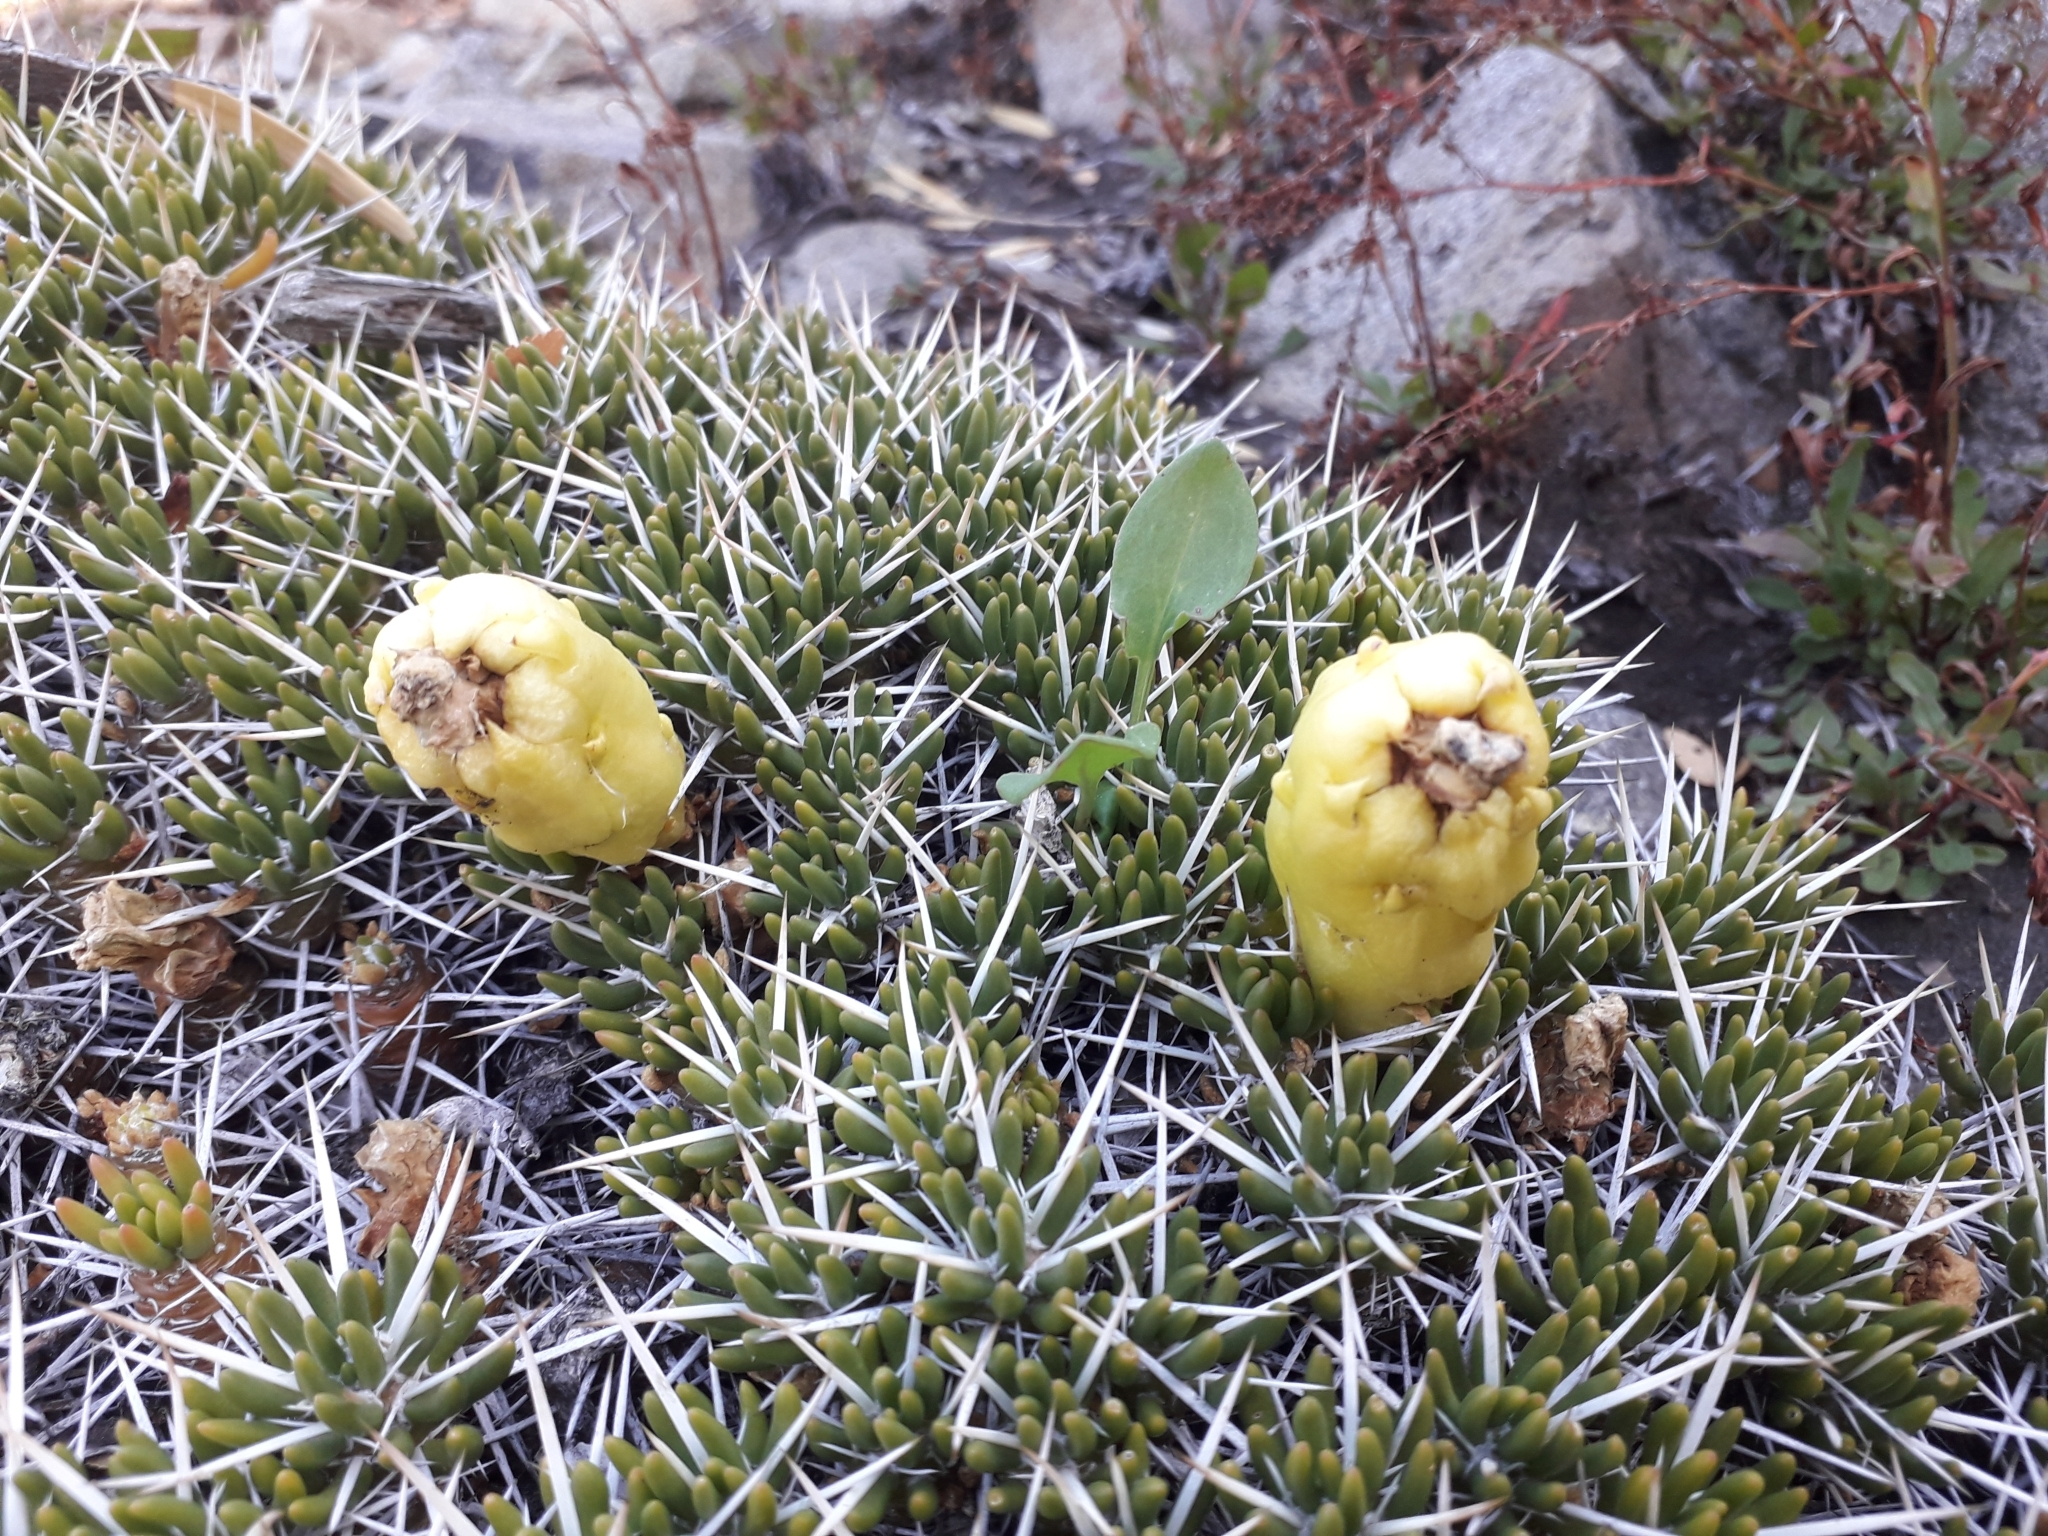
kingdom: Plantae
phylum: Tracheophyta
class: Magnoliopsida
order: Caryophyllales
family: Cactaceae
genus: Maihuenia
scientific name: Maihuenia poeppigii
